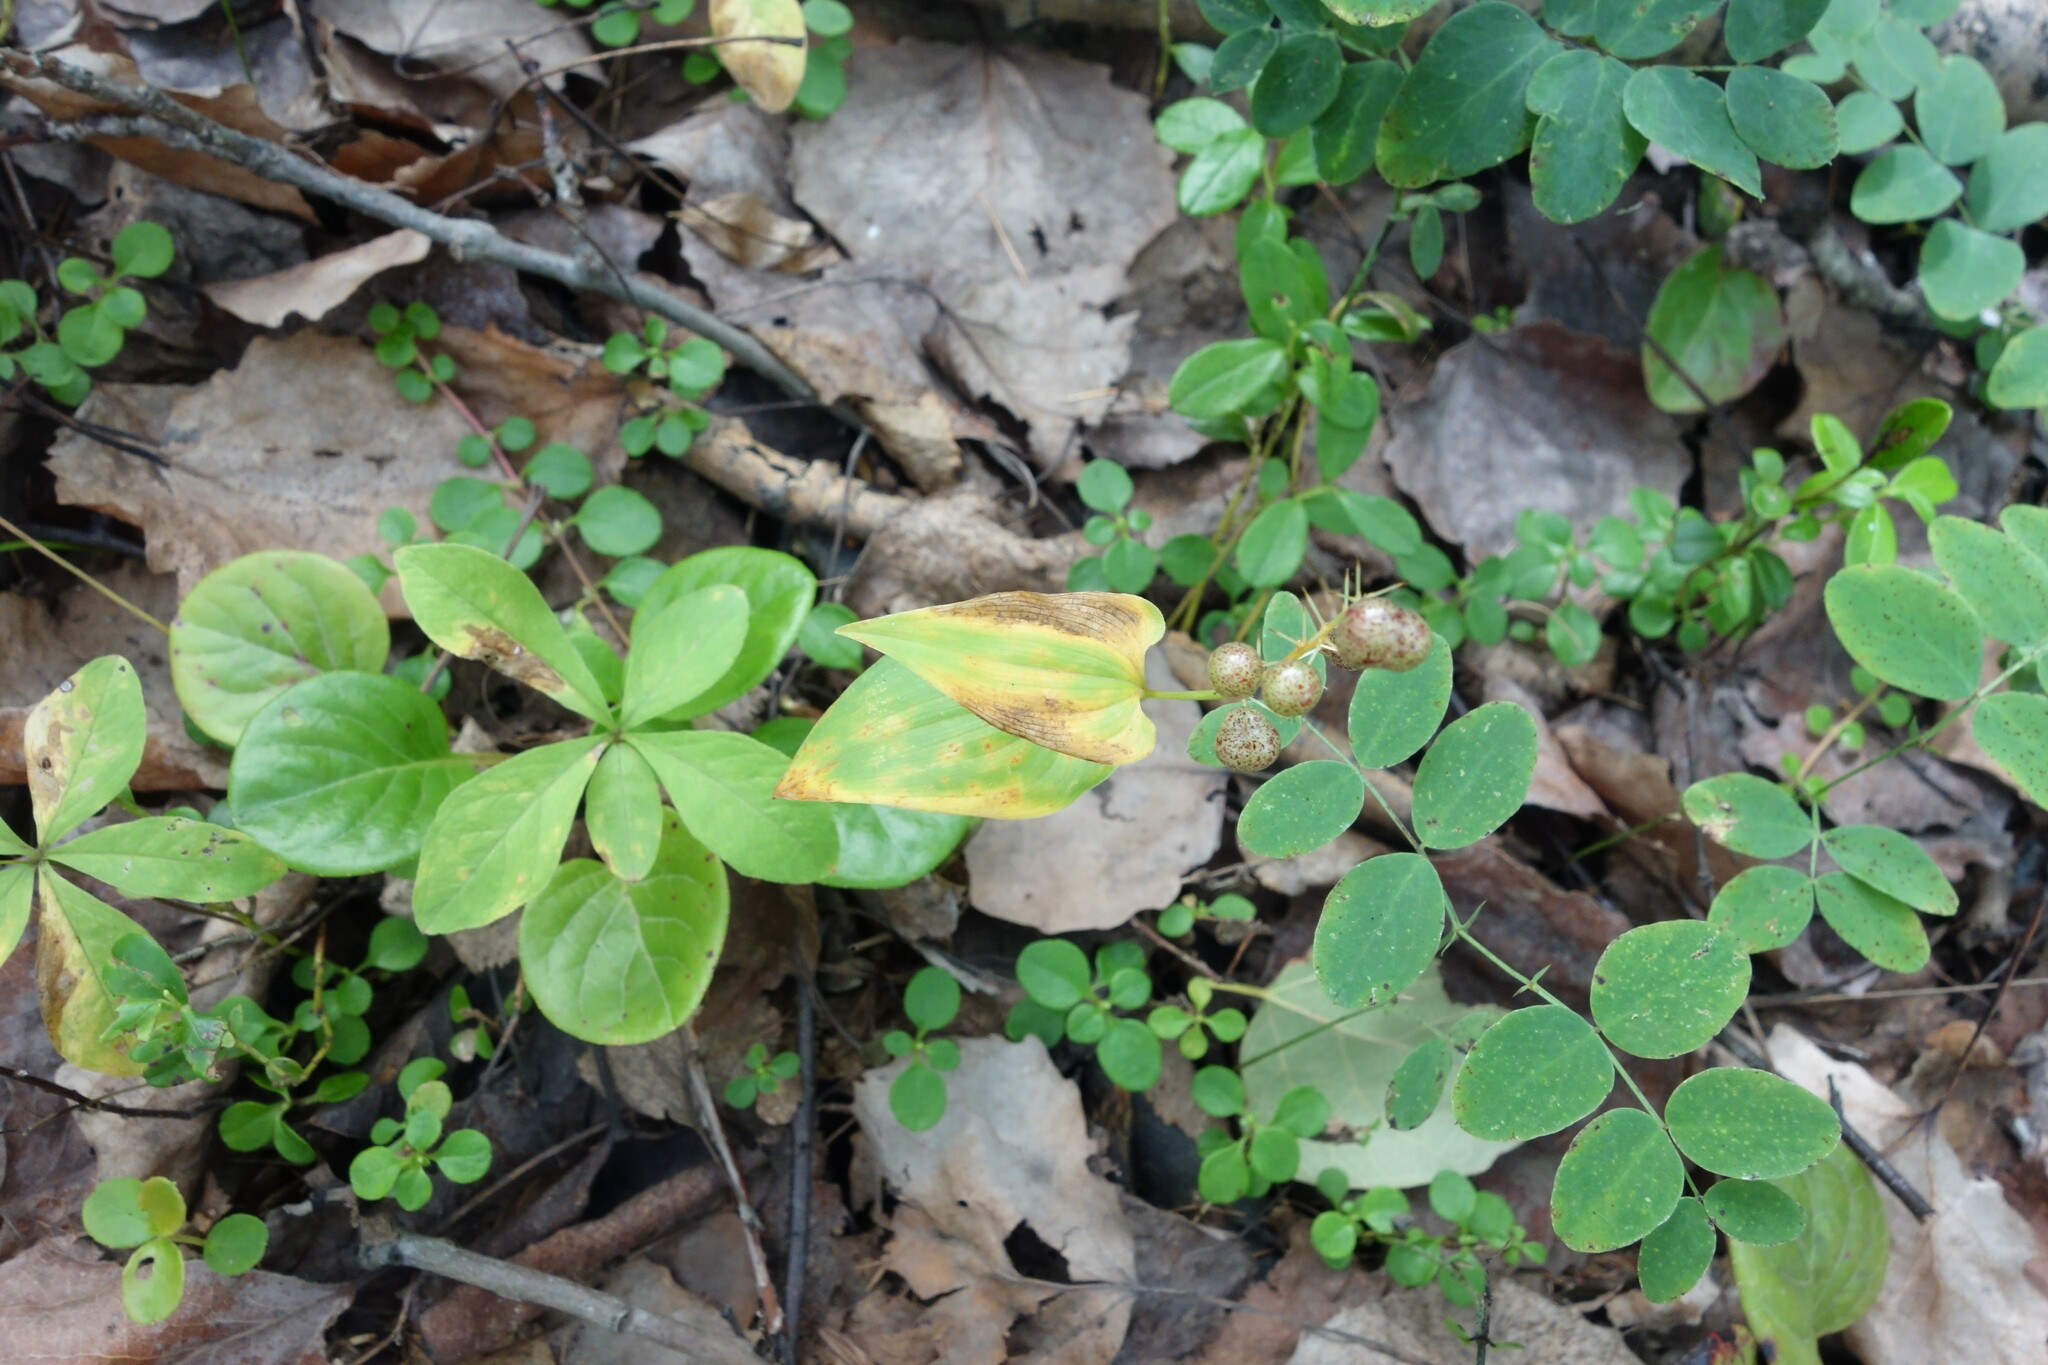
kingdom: Plantae
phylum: Tracheophyta
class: Liliopsida
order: Asparagales
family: Asparagaceae
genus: Maianthemum
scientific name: Maianthemum bifolium
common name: May lily
